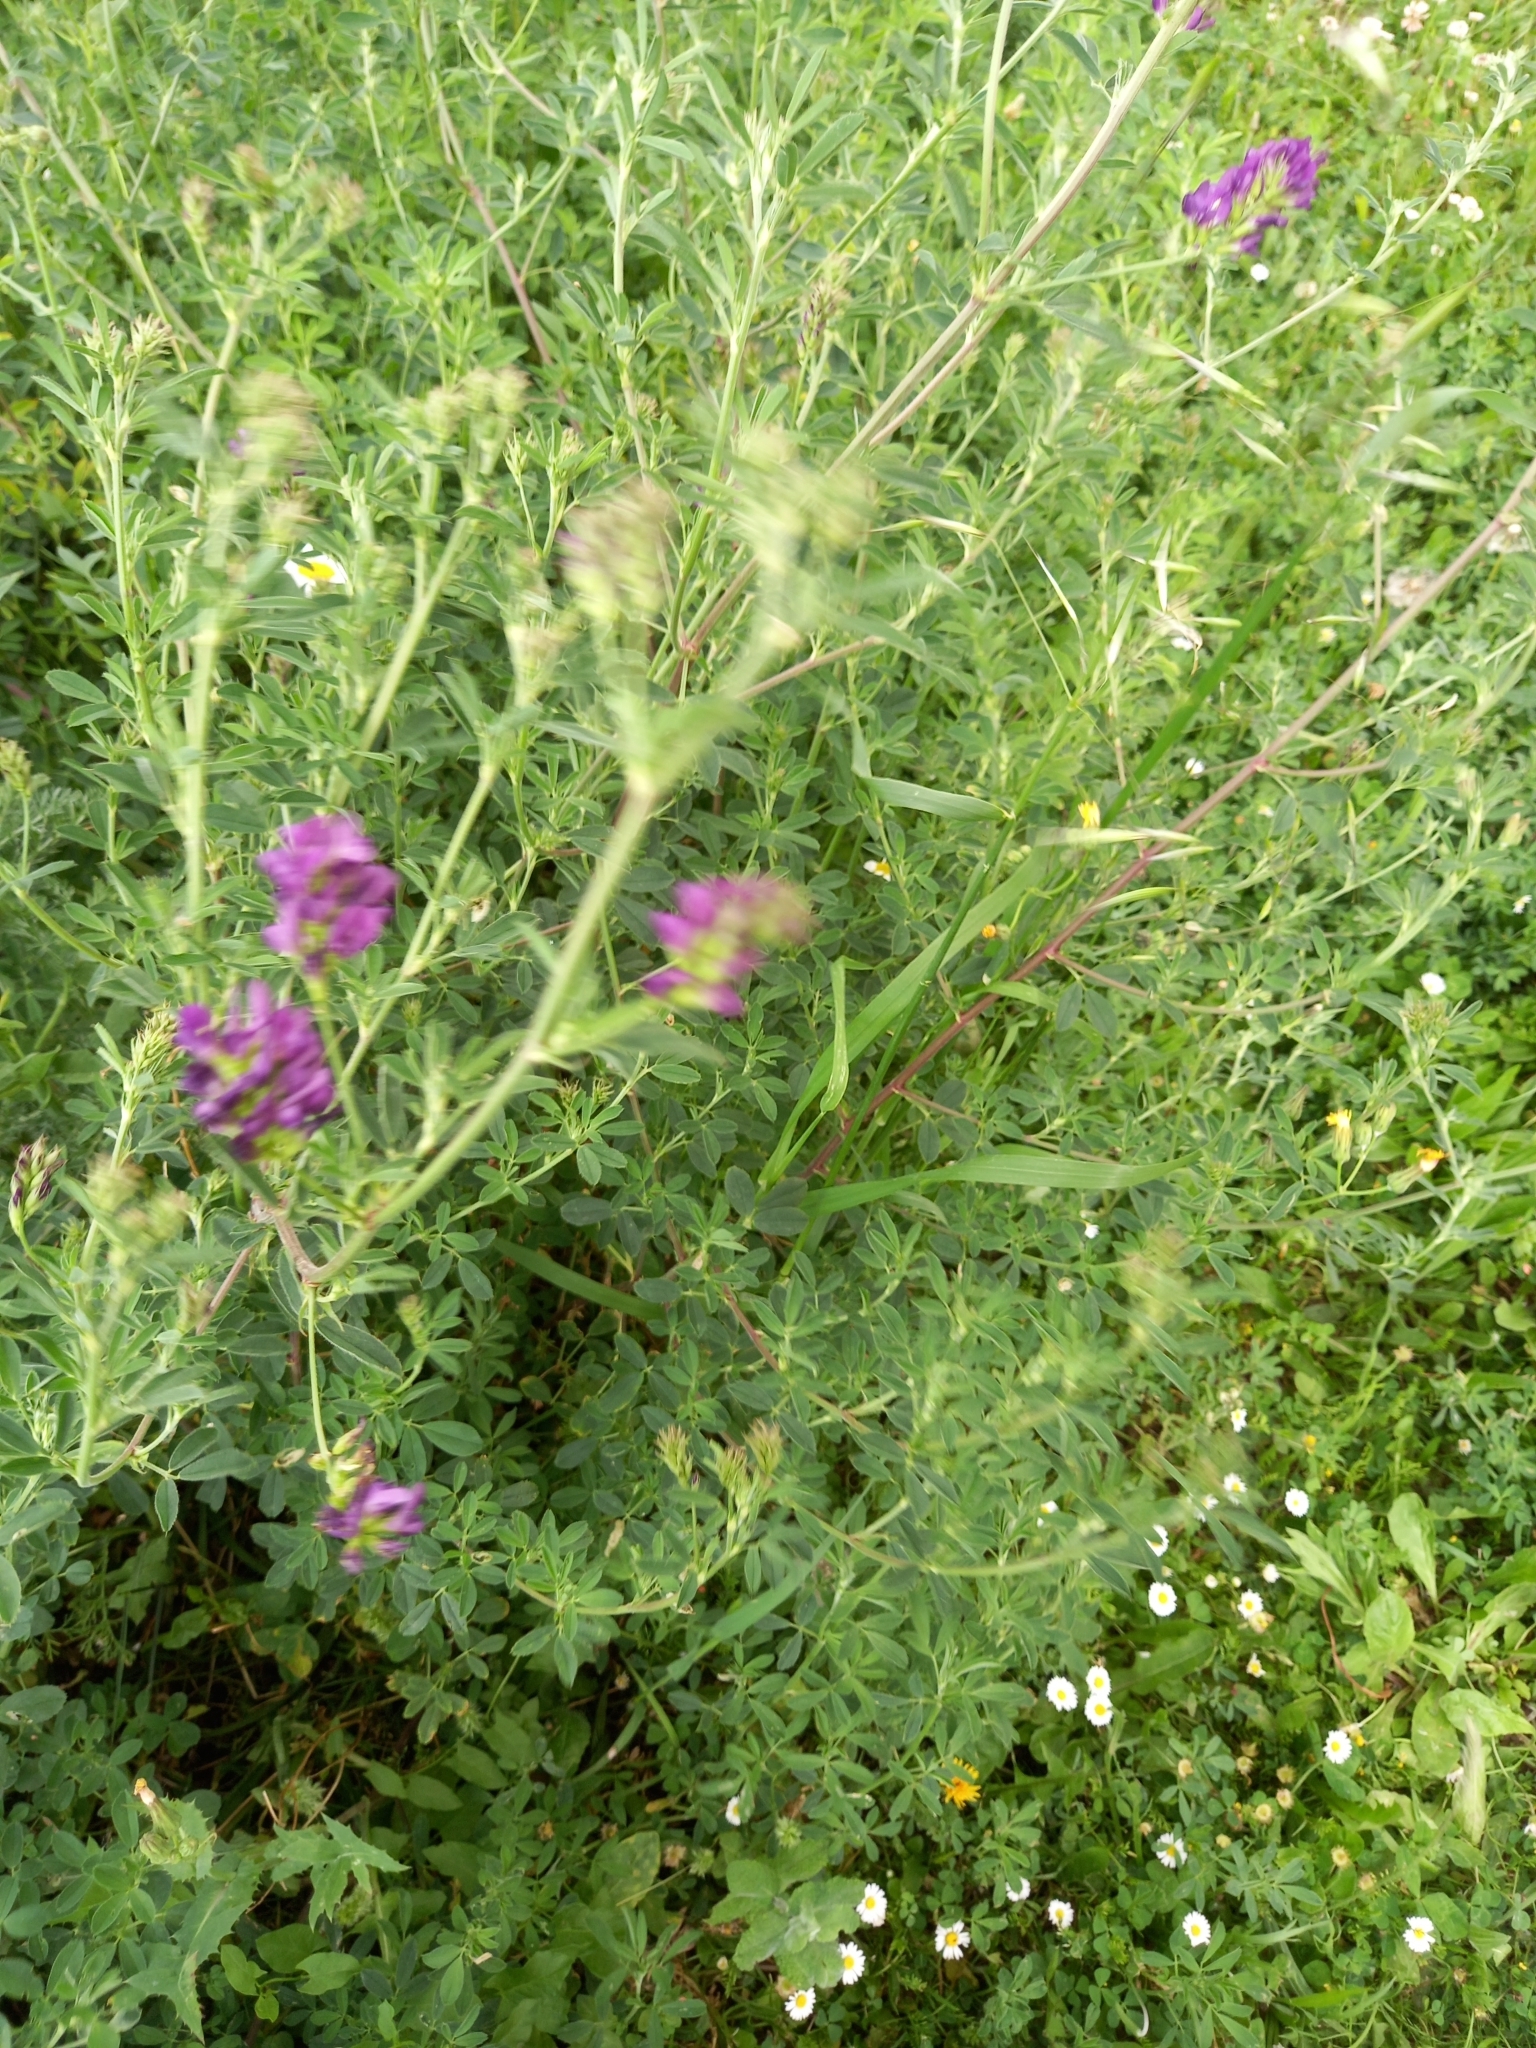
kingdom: Plantae
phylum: Tracheophyta
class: Magnoliopsida
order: Fabales
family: Fabaceae
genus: Medicago
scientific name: Medicago sativa
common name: Alfalfa
